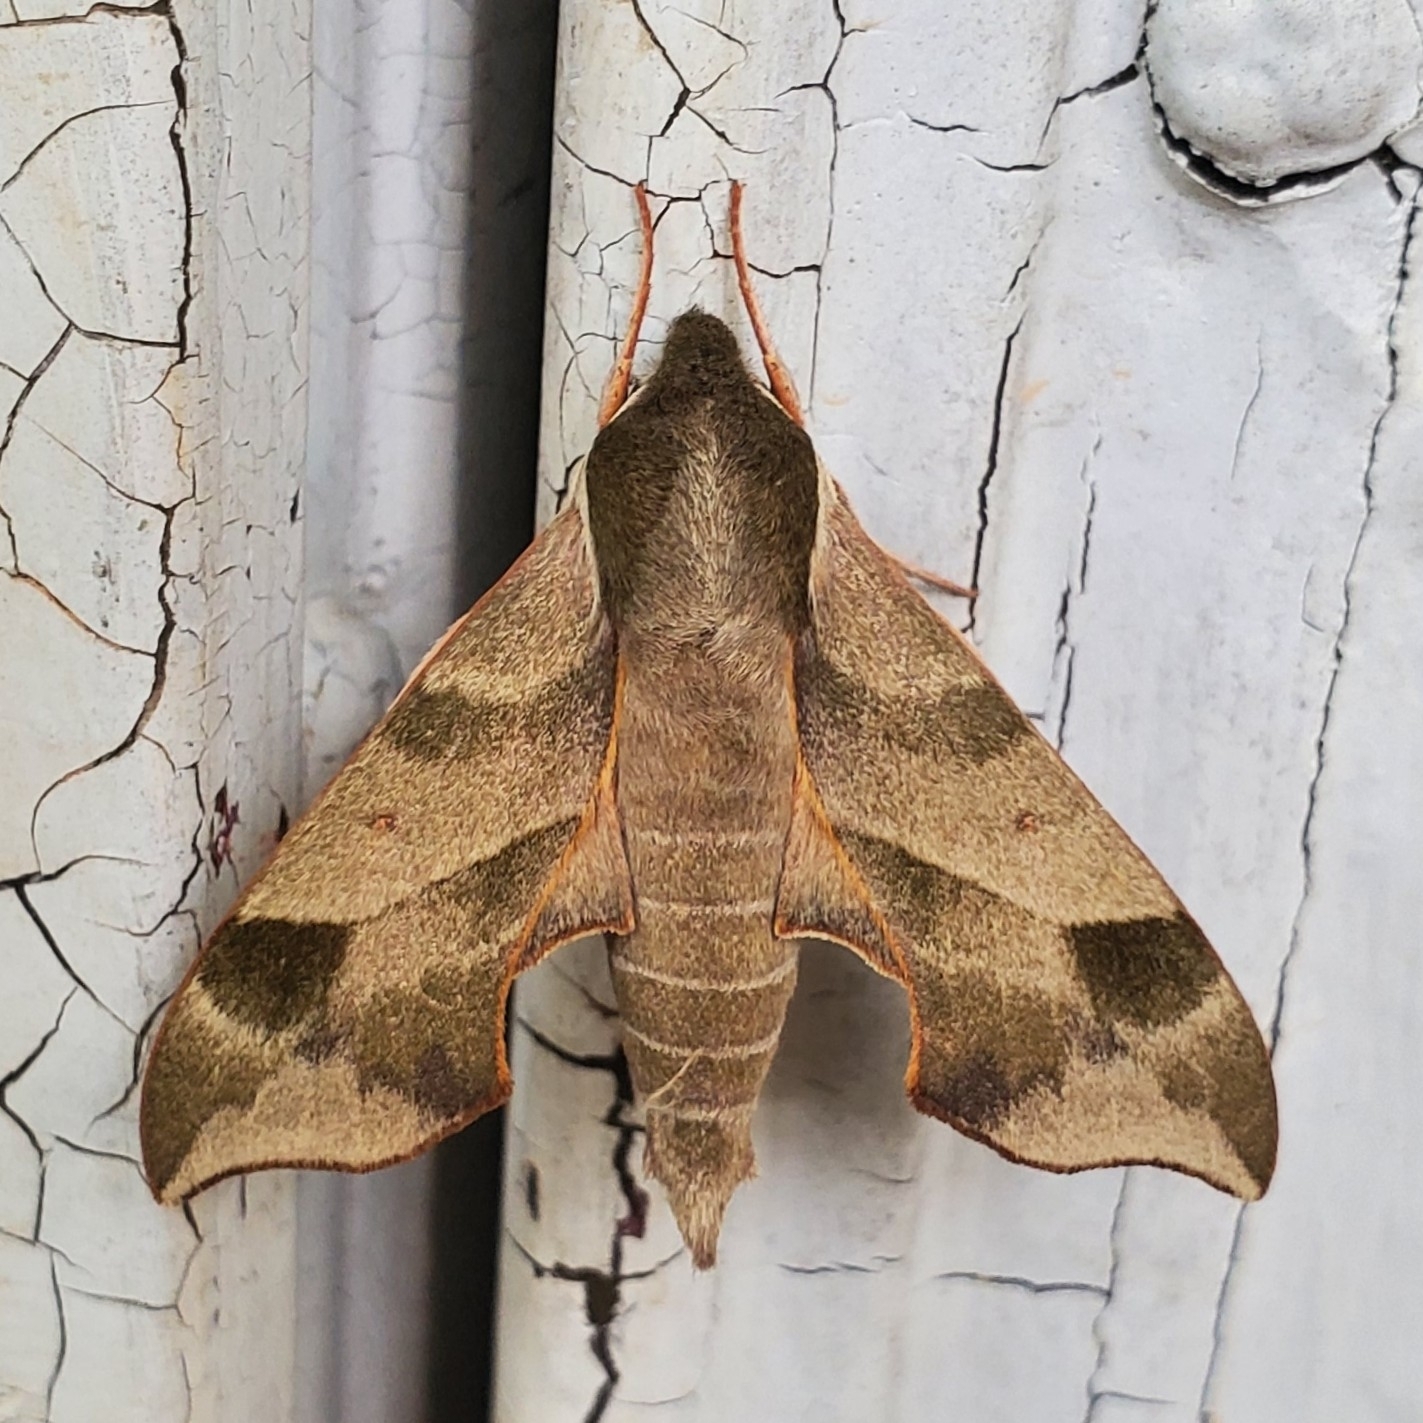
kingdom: Animalia
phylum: Arthropoda
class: Insecta
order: Lepidoptera
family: Sphingidae
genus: Darapsa
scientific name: Darapsa myron
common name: Hog sphinx
